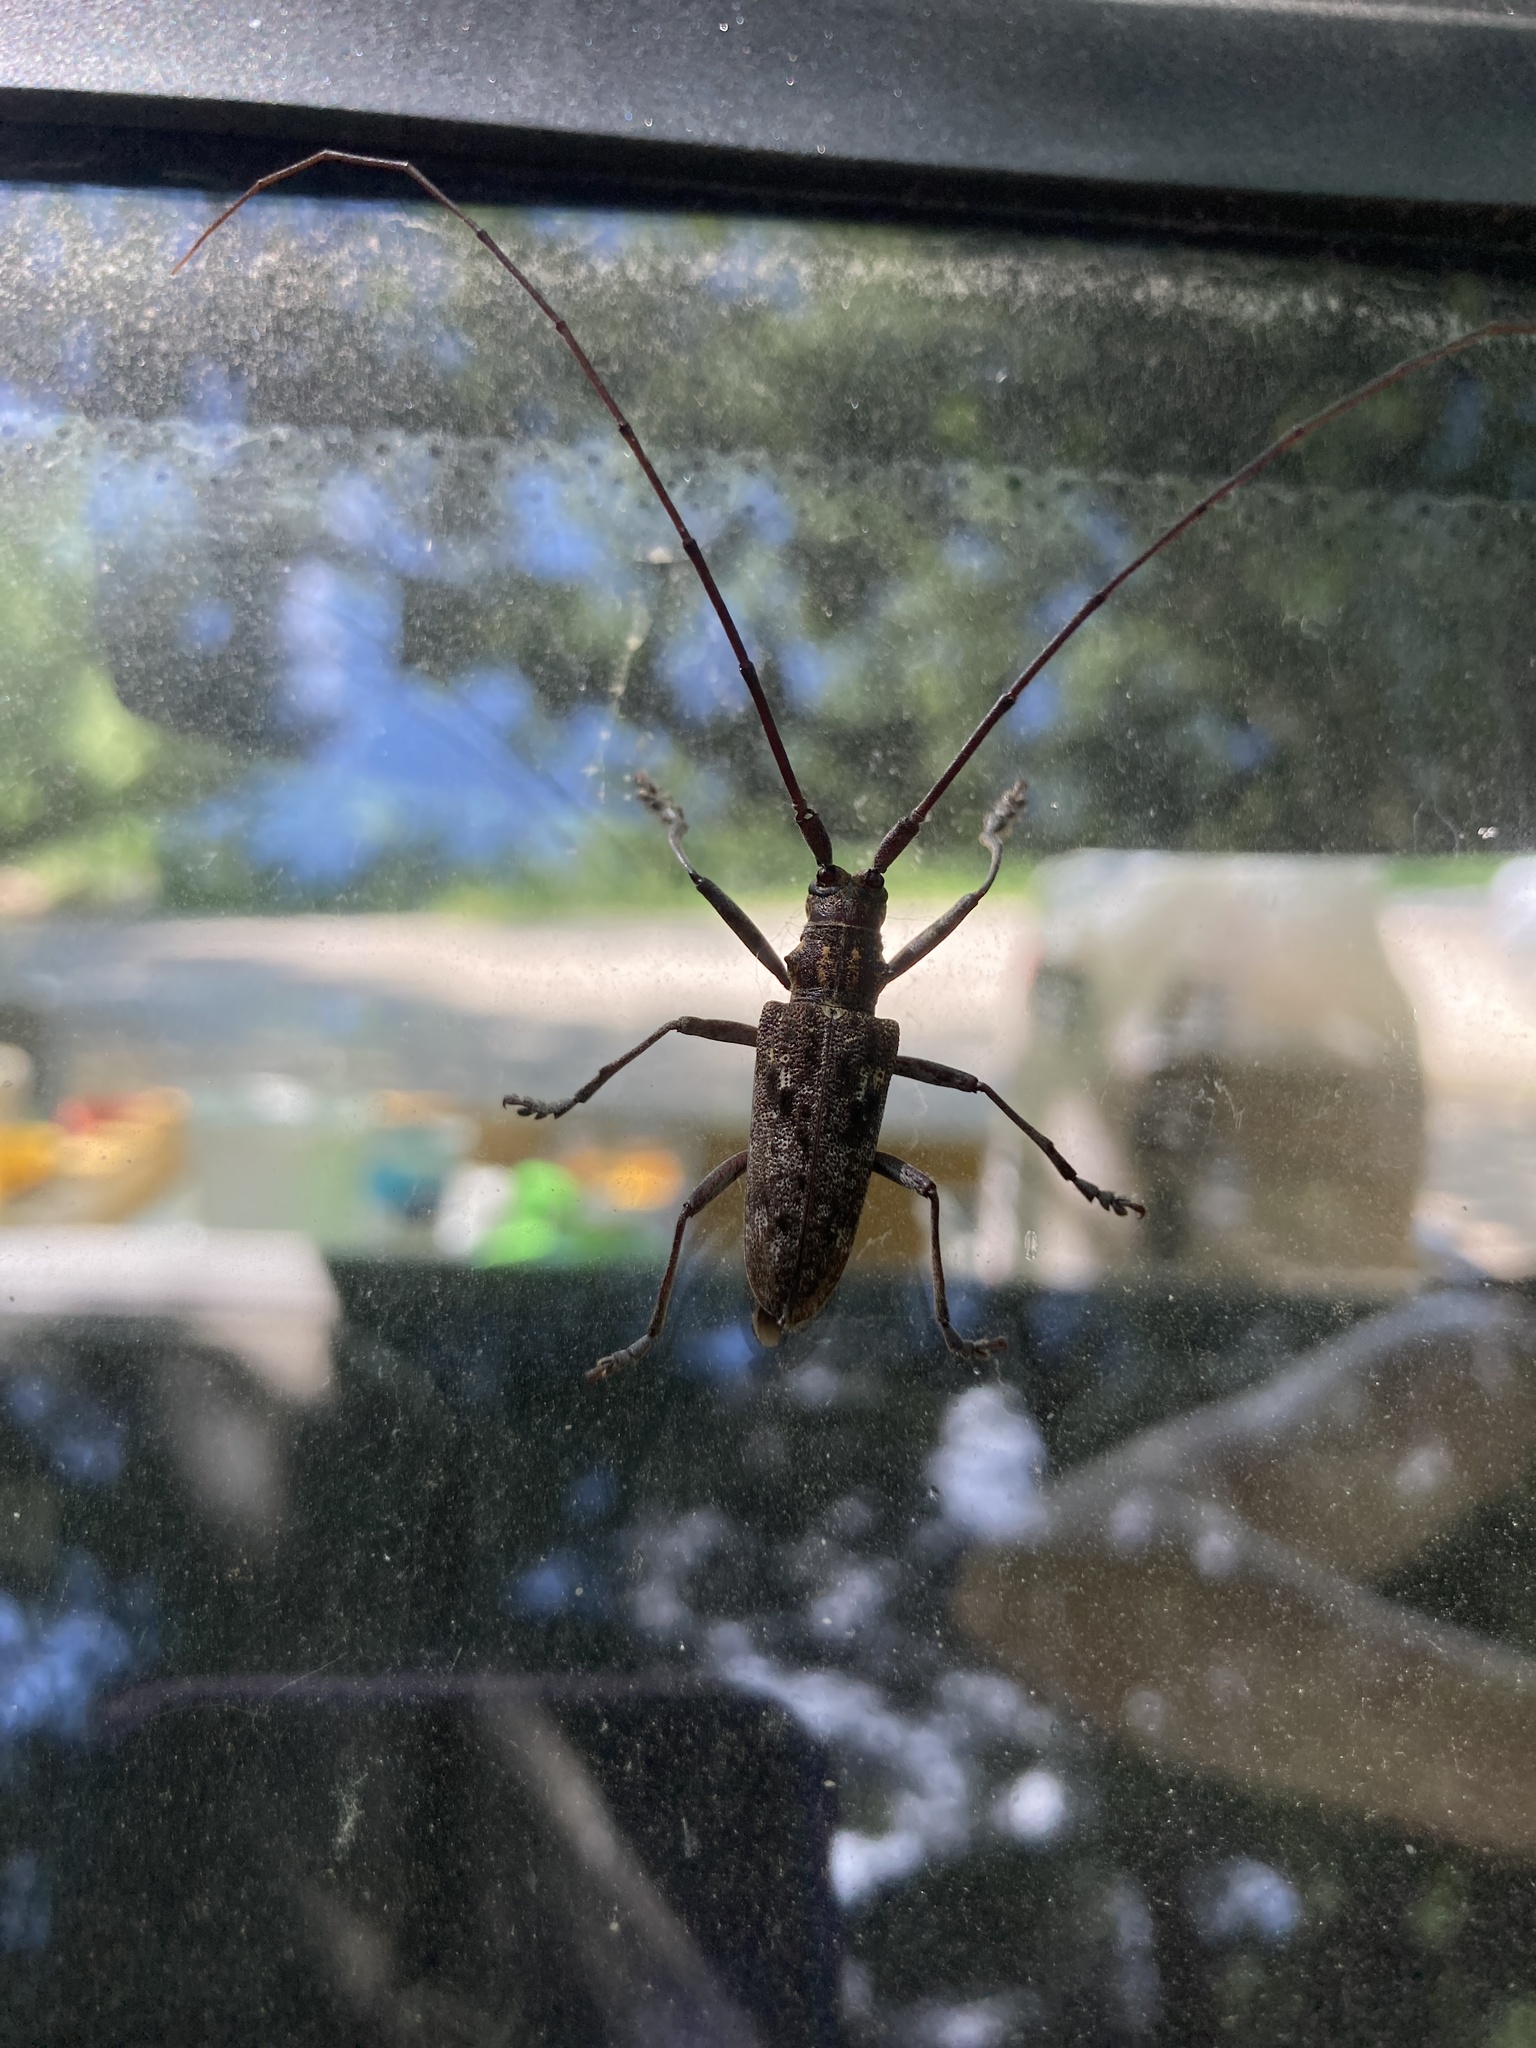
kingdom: Animalia
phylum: Arthropoda
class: Insecta
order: Coleoptera
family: Cerambycidae
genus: Monochamus
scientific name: Monochamus carolinensis
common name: Carolina pine sawyer
